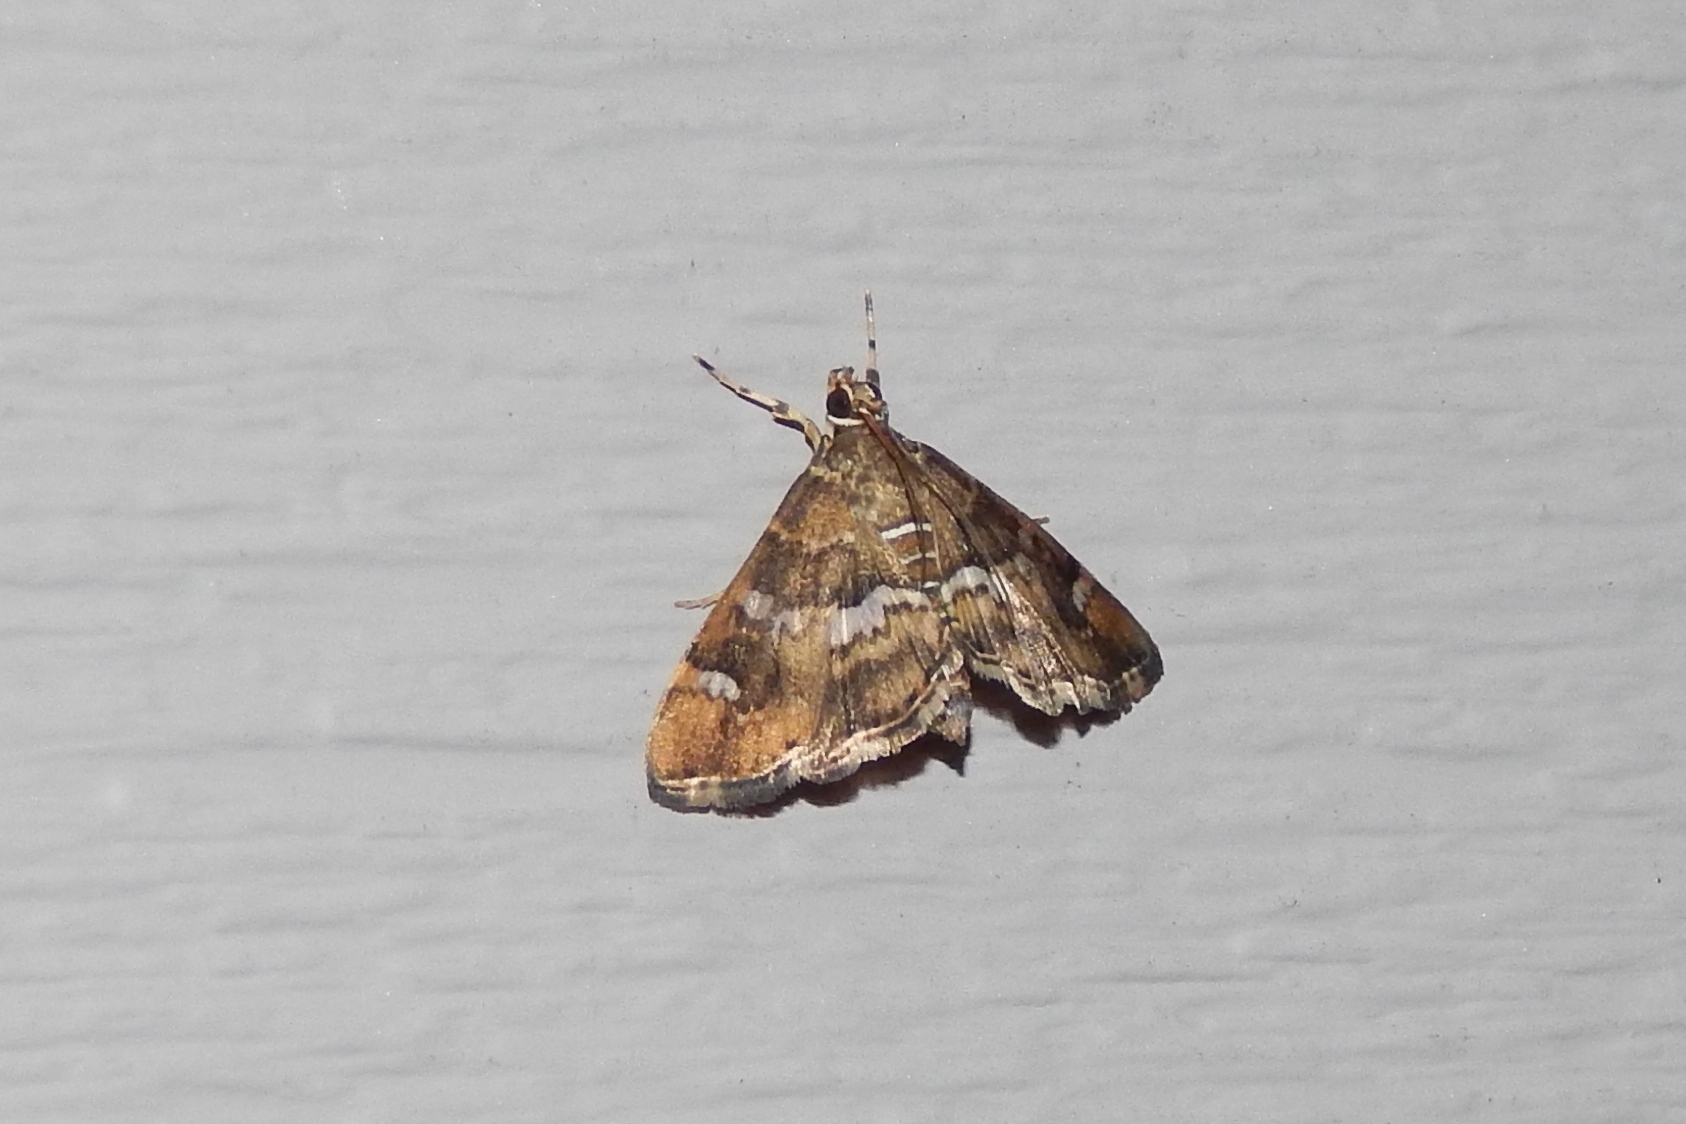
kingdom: Animalia
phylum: Arthropoda
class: Insecta
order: Lepidoptera
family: Crambidae
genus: Hymenia
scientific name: Hymenia perspectalis
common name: Spotted beet webworm
